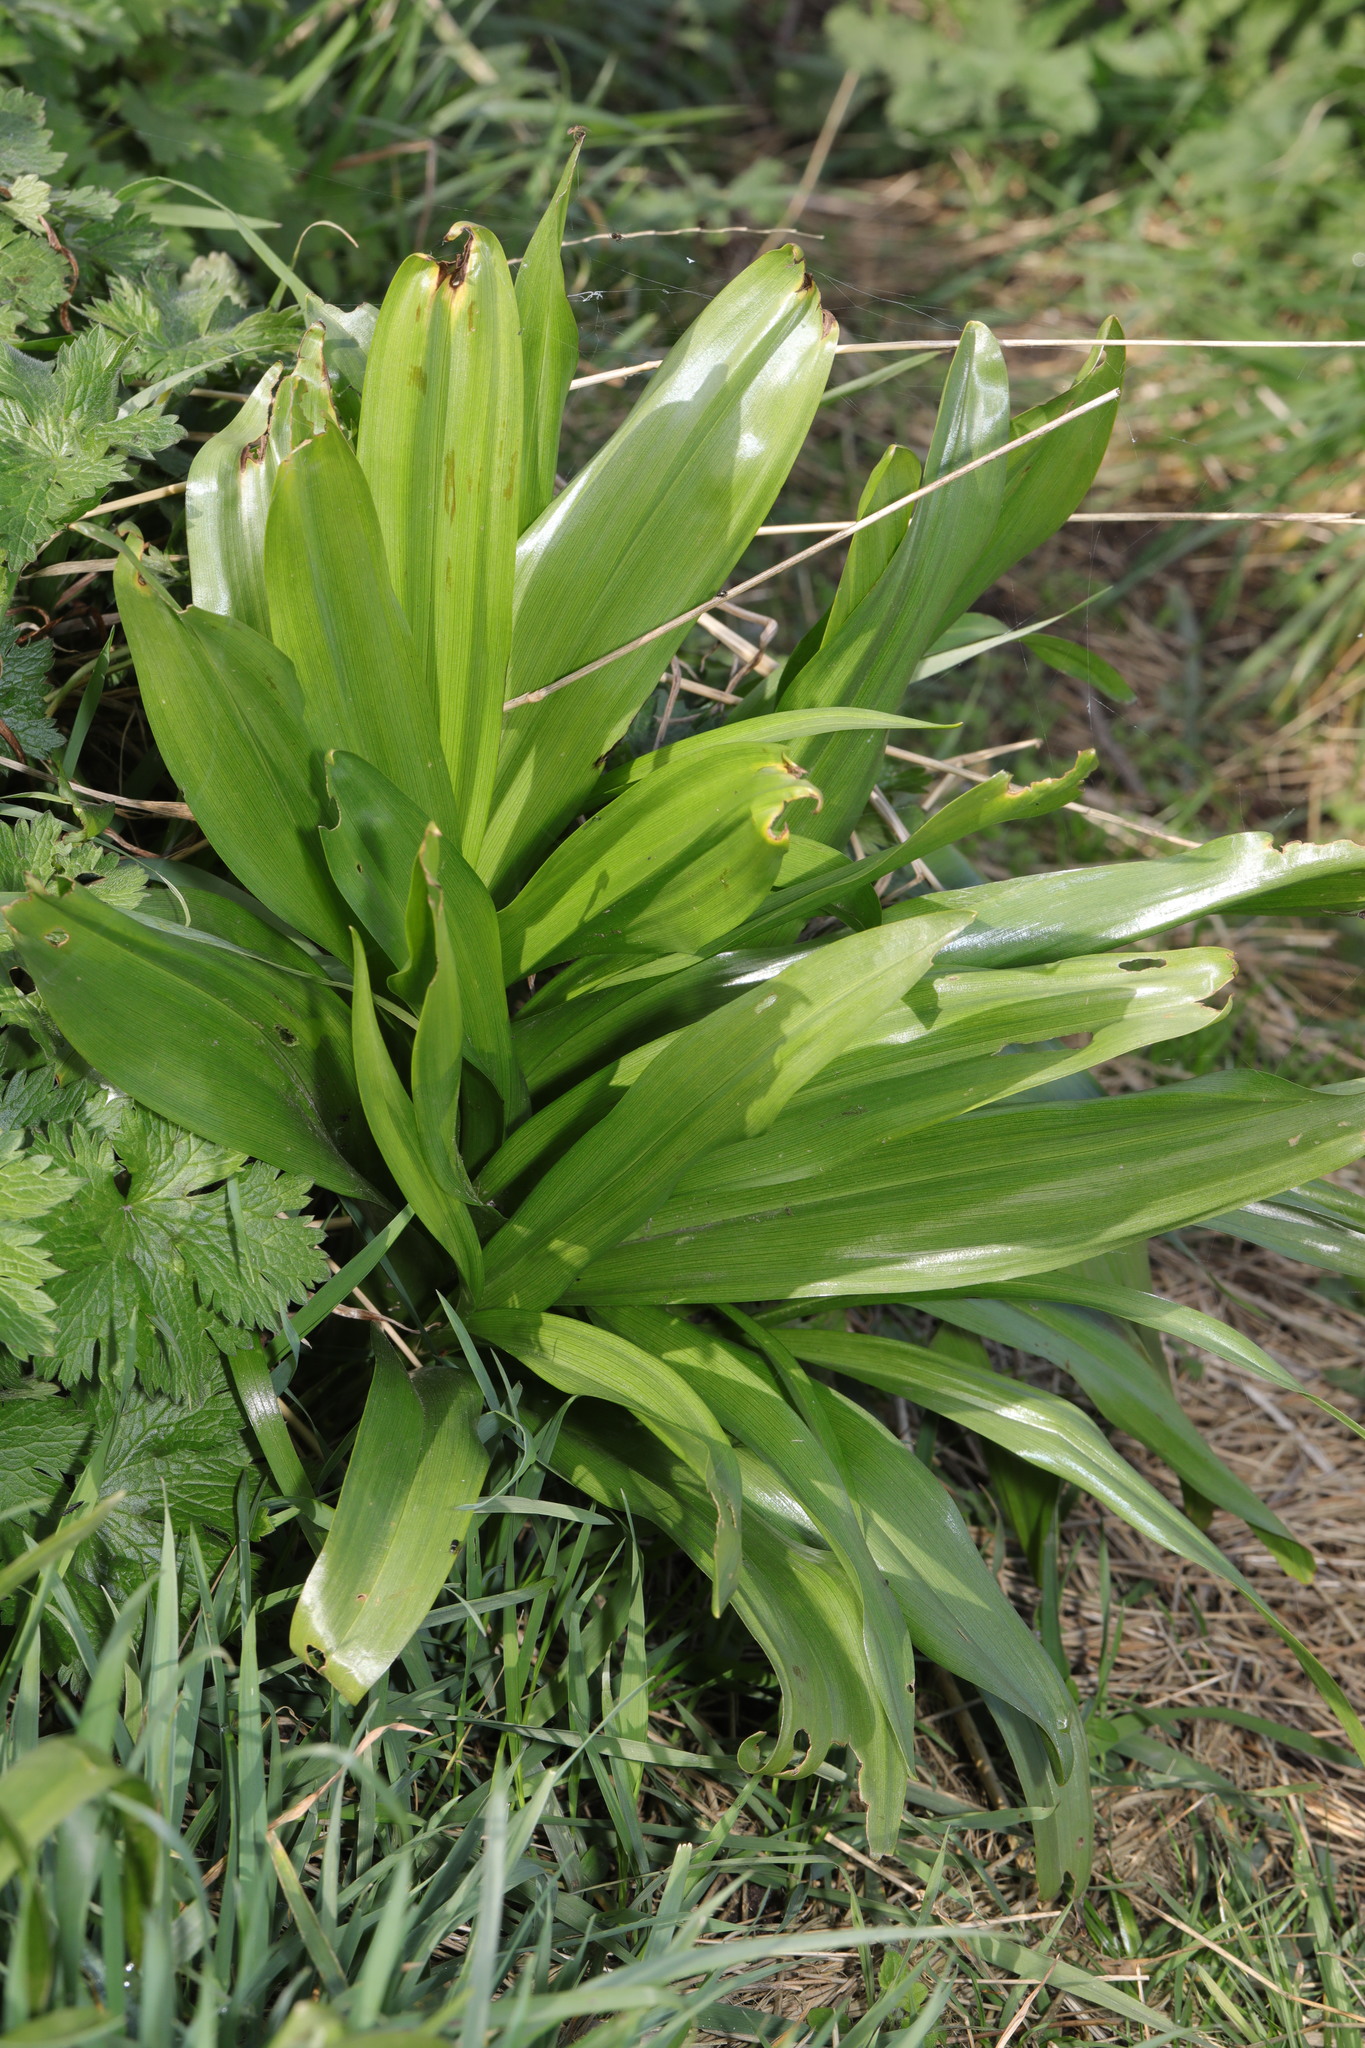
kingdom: Plantae
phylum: Tracheophyta
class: Liliopsida
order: Asparagales
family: Asparagaceae
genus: Hyacinthoides
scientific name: Hyacinthoides massartiana
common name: Hyacinthoides
